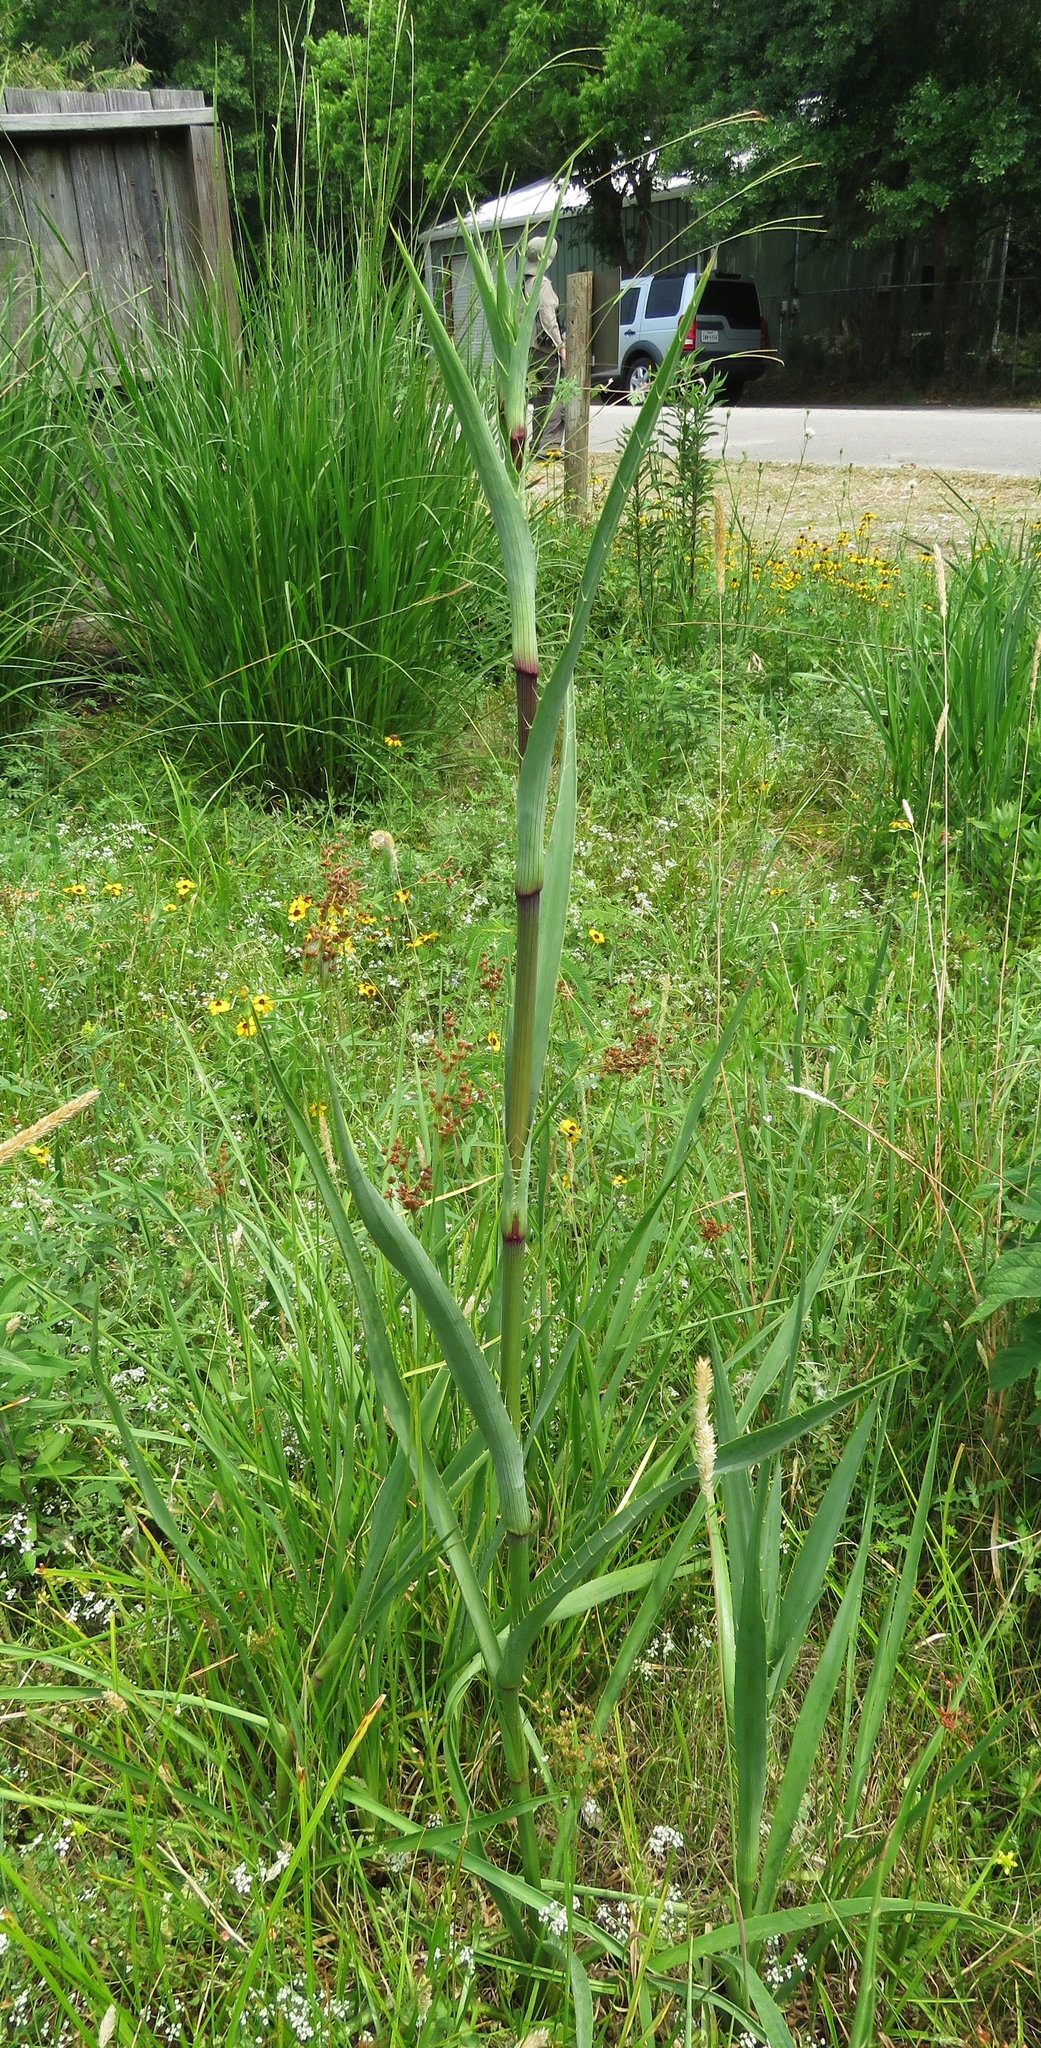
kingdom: Plantae
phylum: Tracheophyta
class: Magnoliopsida
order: Apiales
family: Apiaceae
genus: Eryngium
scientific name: Eryngium yuccifolium
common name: Button eryngo
